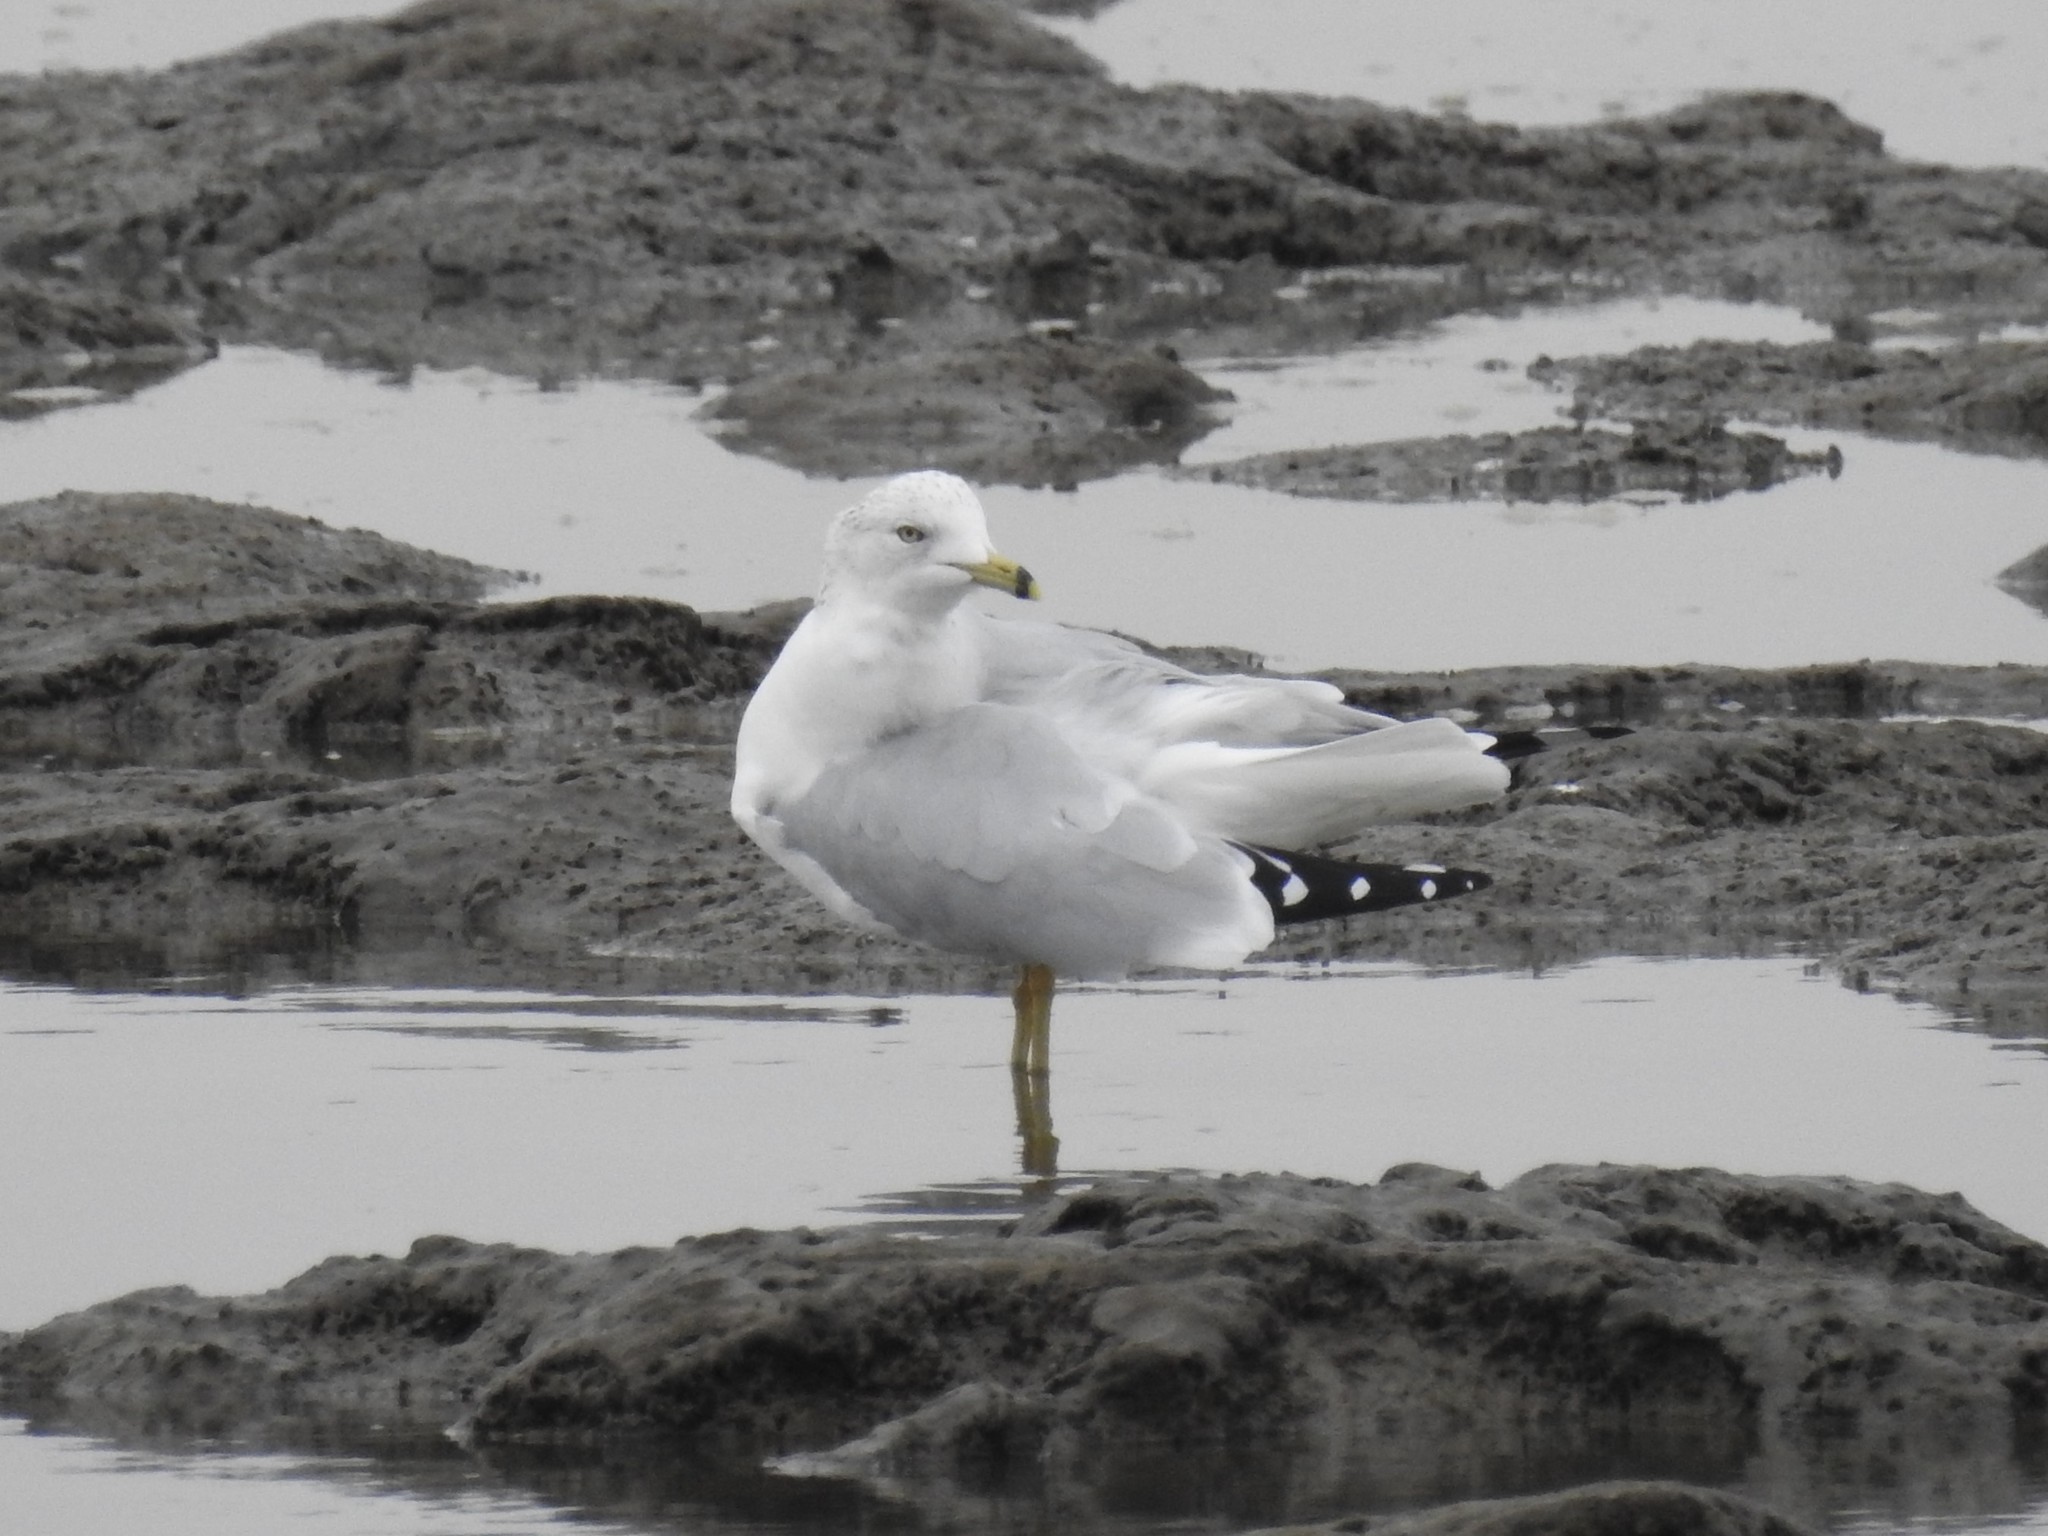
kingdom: Animalia
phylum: Chordata
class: Aves
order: Charadriiformes
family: Laridae
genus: Larus
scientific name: Larus delawarensis
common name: Ring-billed gull
